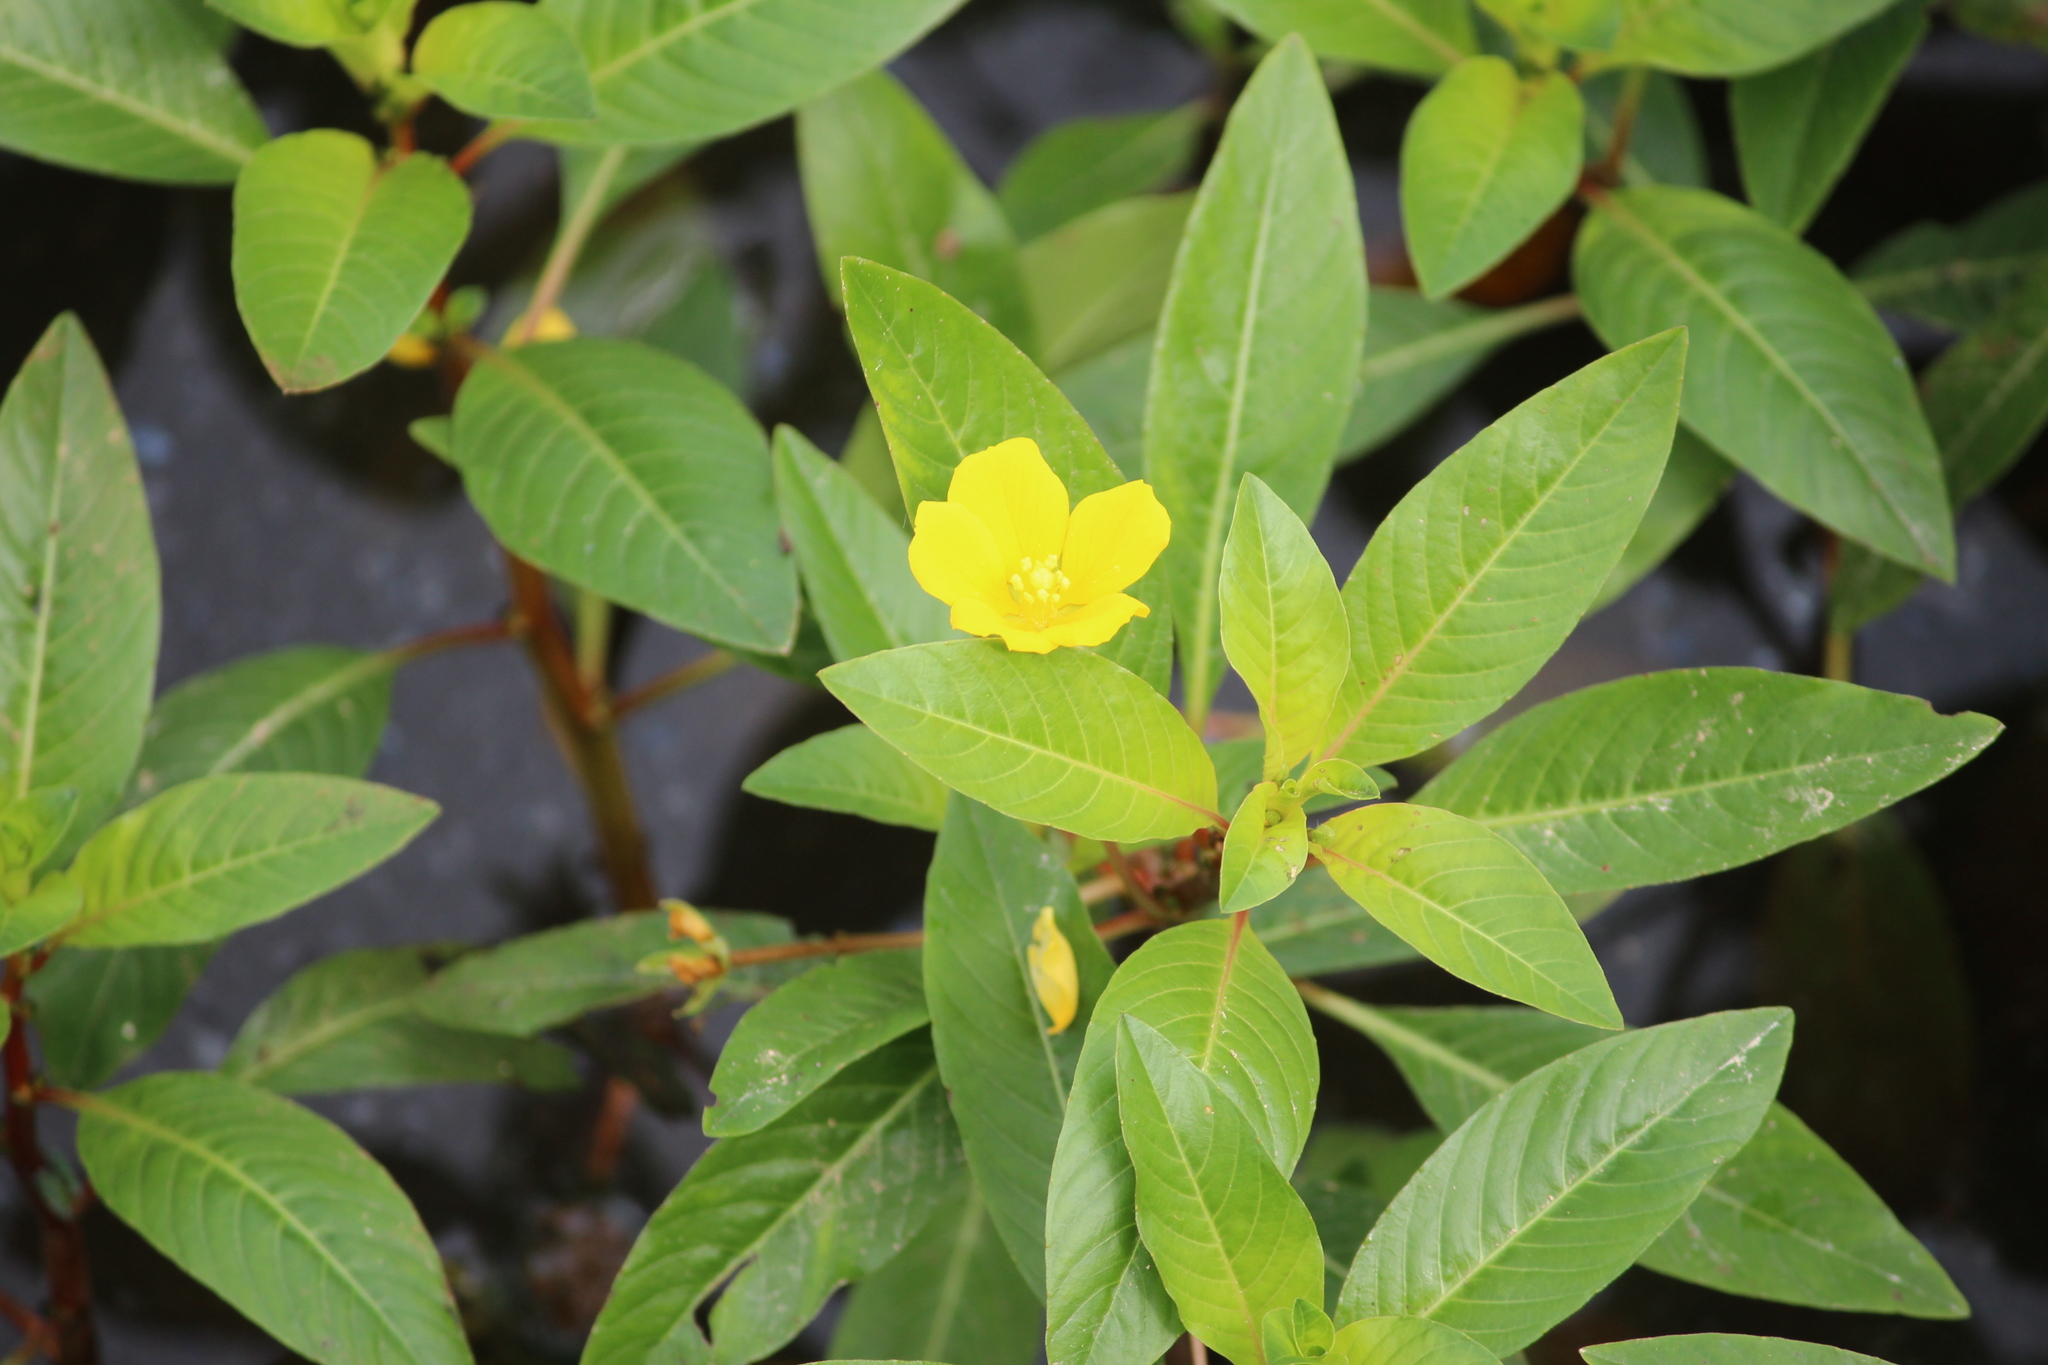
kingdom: Plantae
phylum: Tracheophyta
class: Magnoliopsida
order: Myrtales
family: Onagraceae
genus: Ludwigia
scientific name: Ludwigia peploides
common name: Floating primrose-willow
